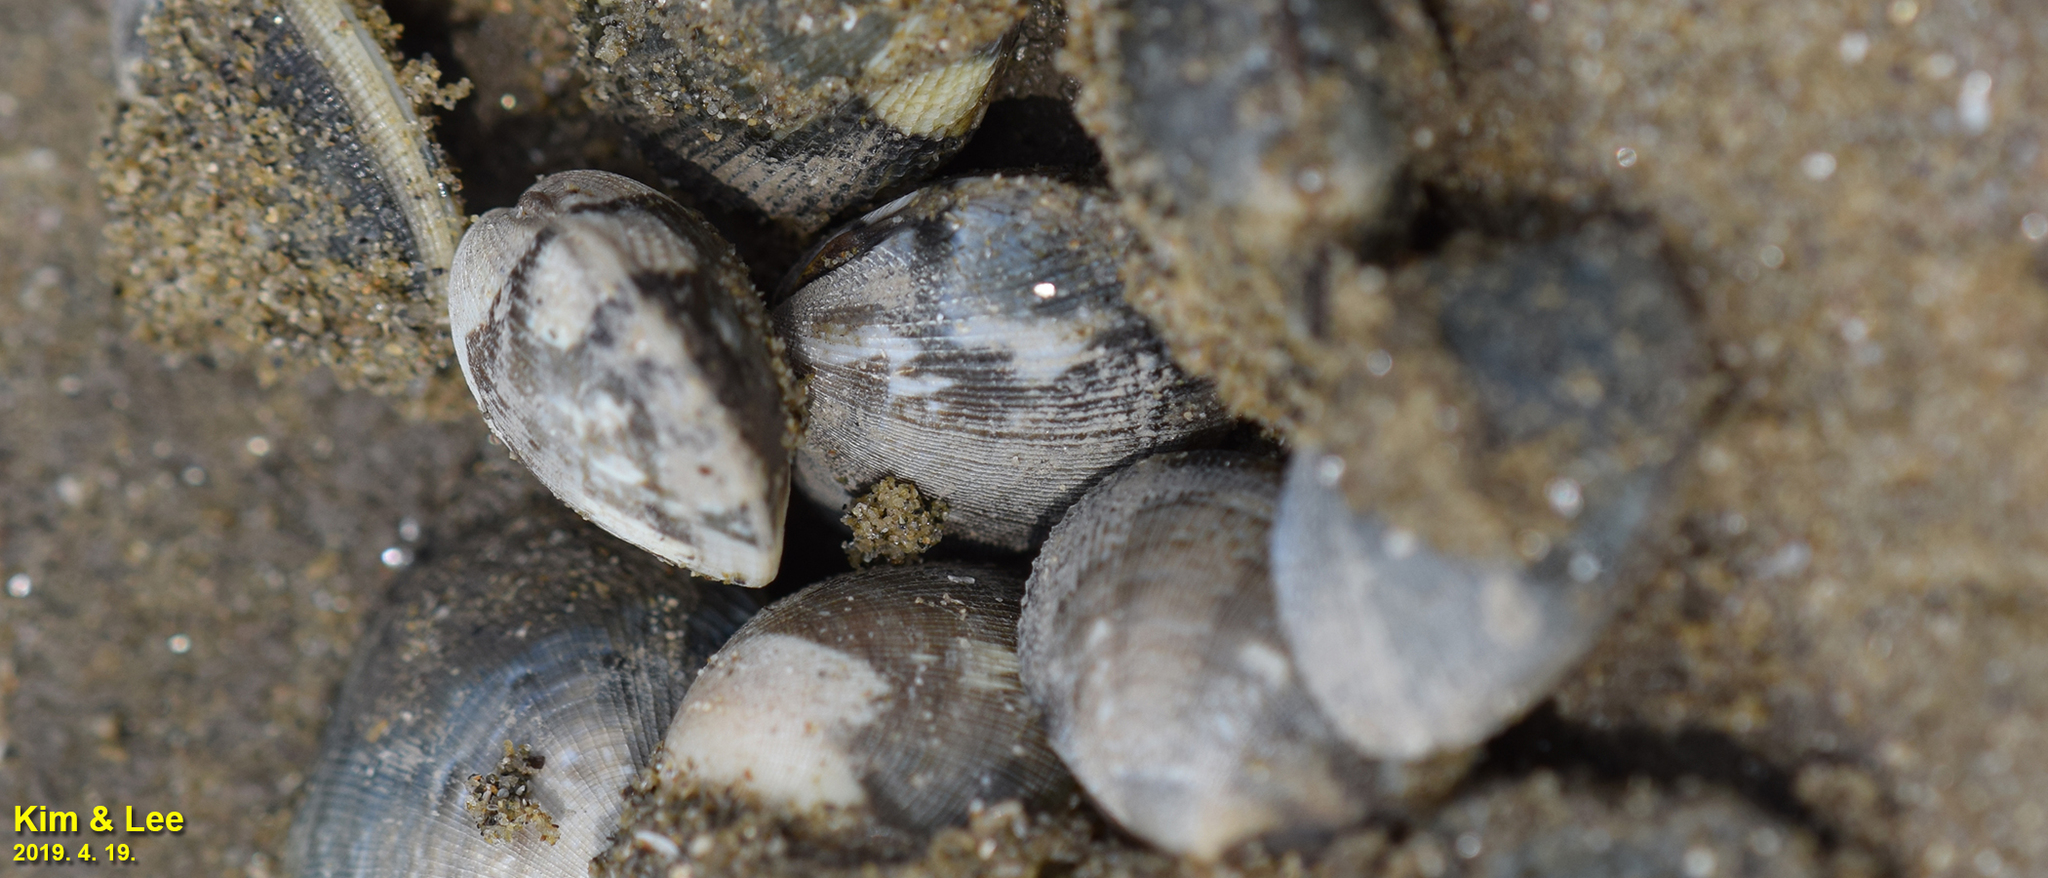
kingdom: Animalia
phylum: Mollusca
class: Bivalvia
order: Venerida
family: Veneridae
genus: Ruditapes
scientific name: Ruditapes philippinarum
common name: Manila clam
